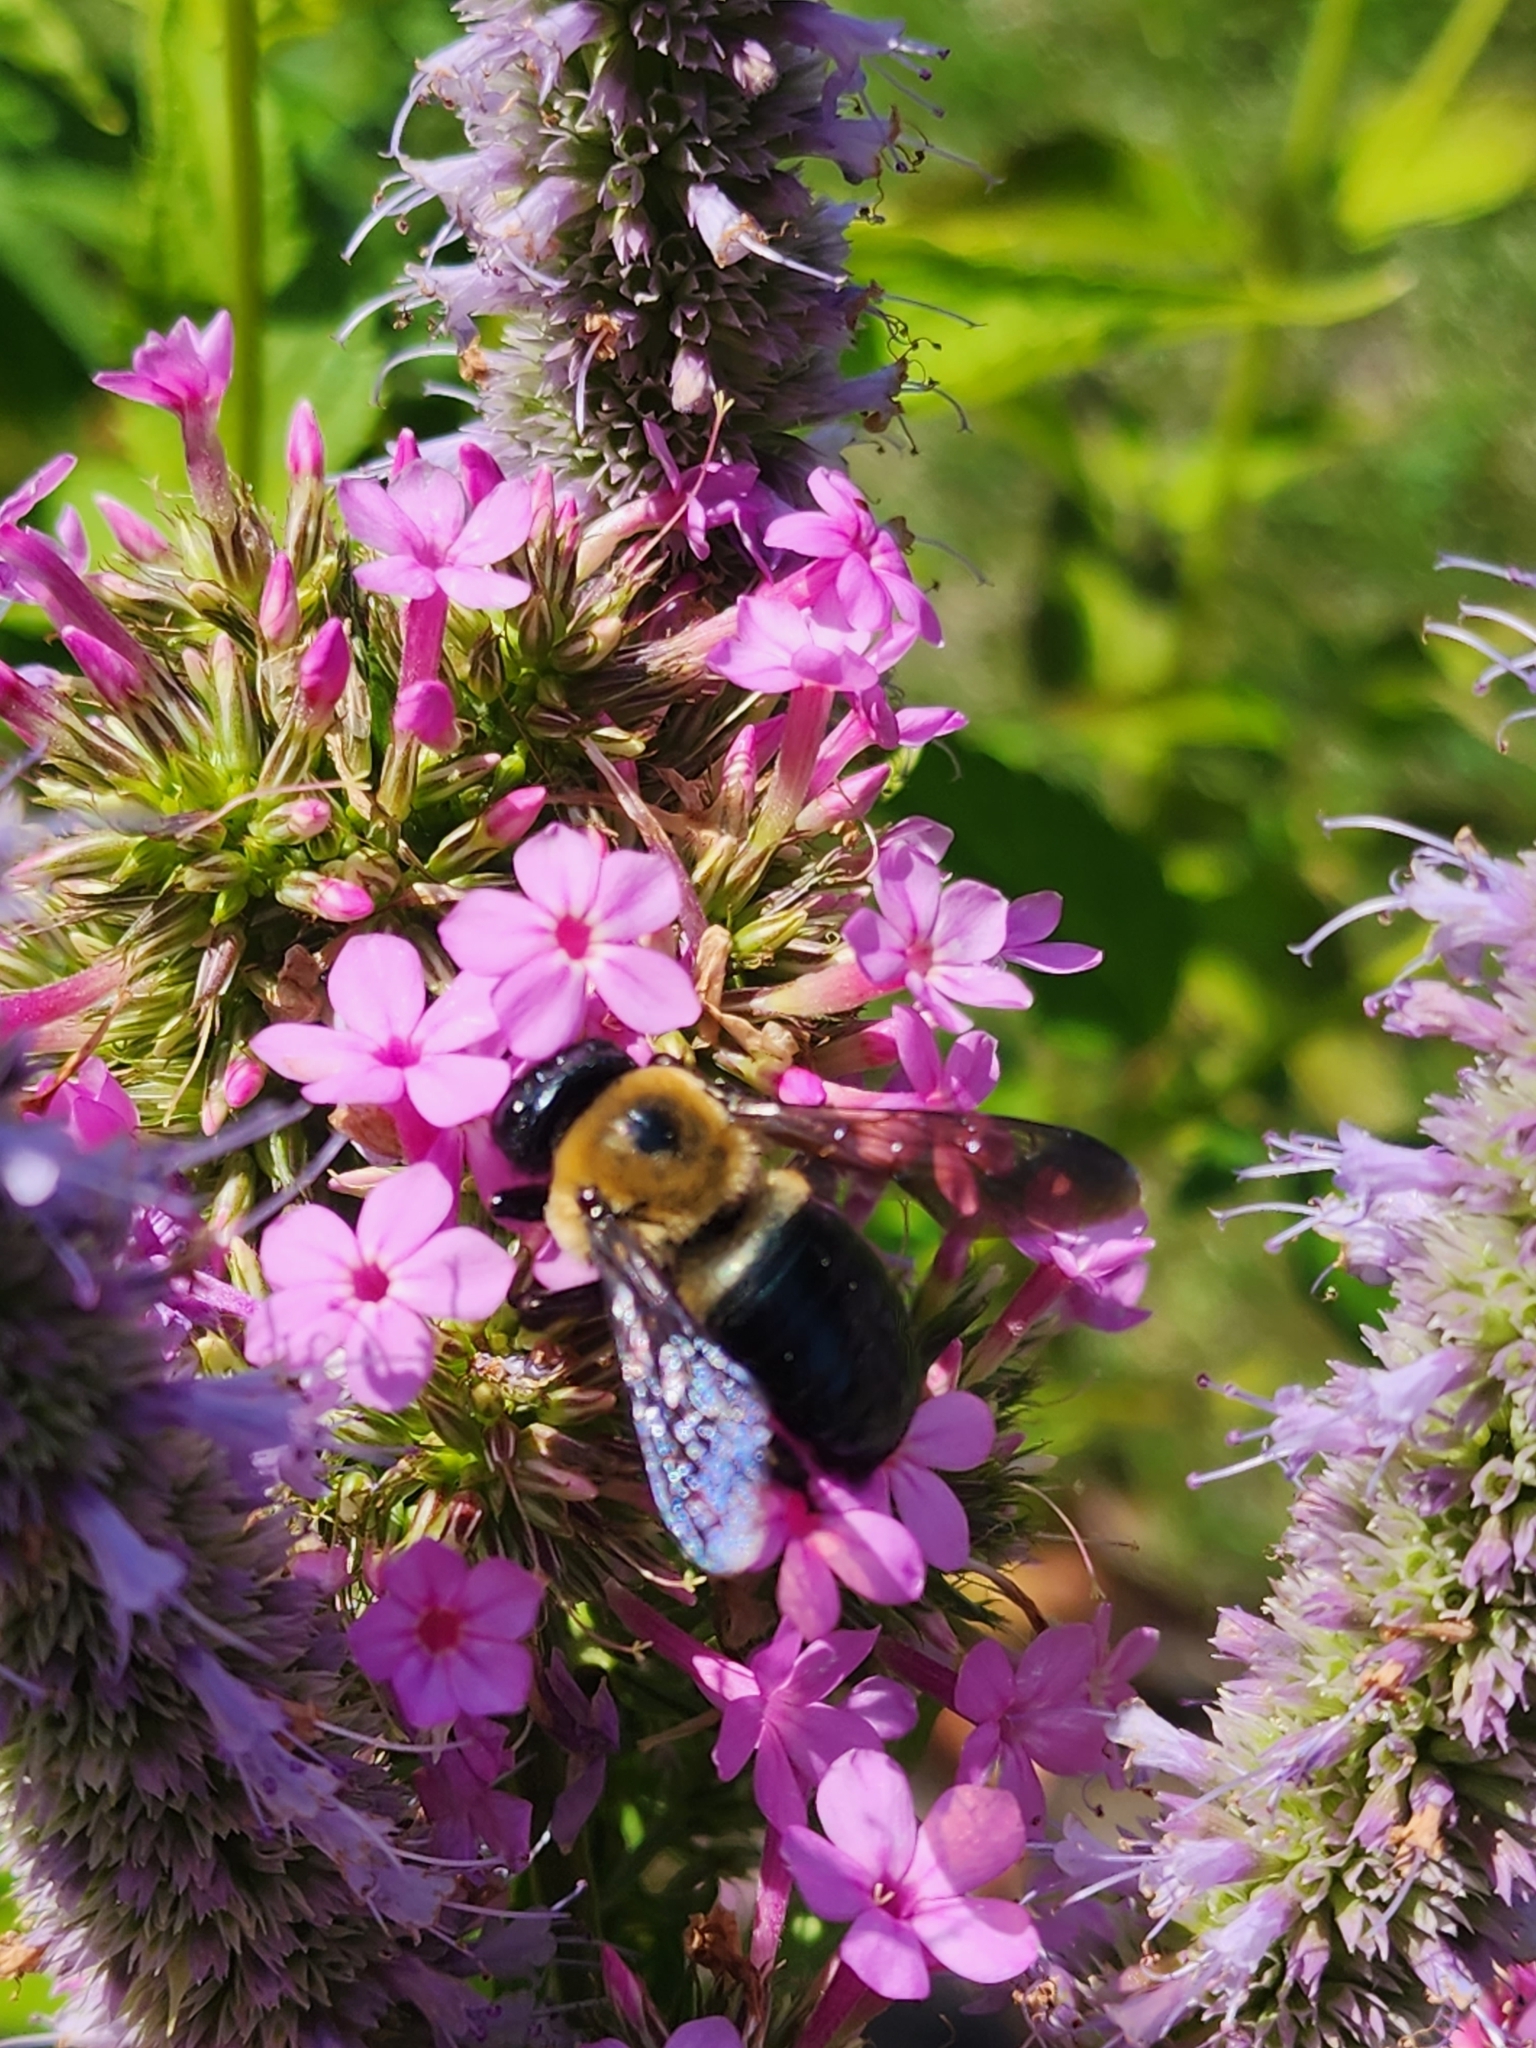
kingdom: Animalia
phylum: Arthropoda
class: Insecta
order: Hymenoptera
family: Apidae
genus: Xylocopa
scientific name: Xylocopa virginica
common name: Carpenter bee
